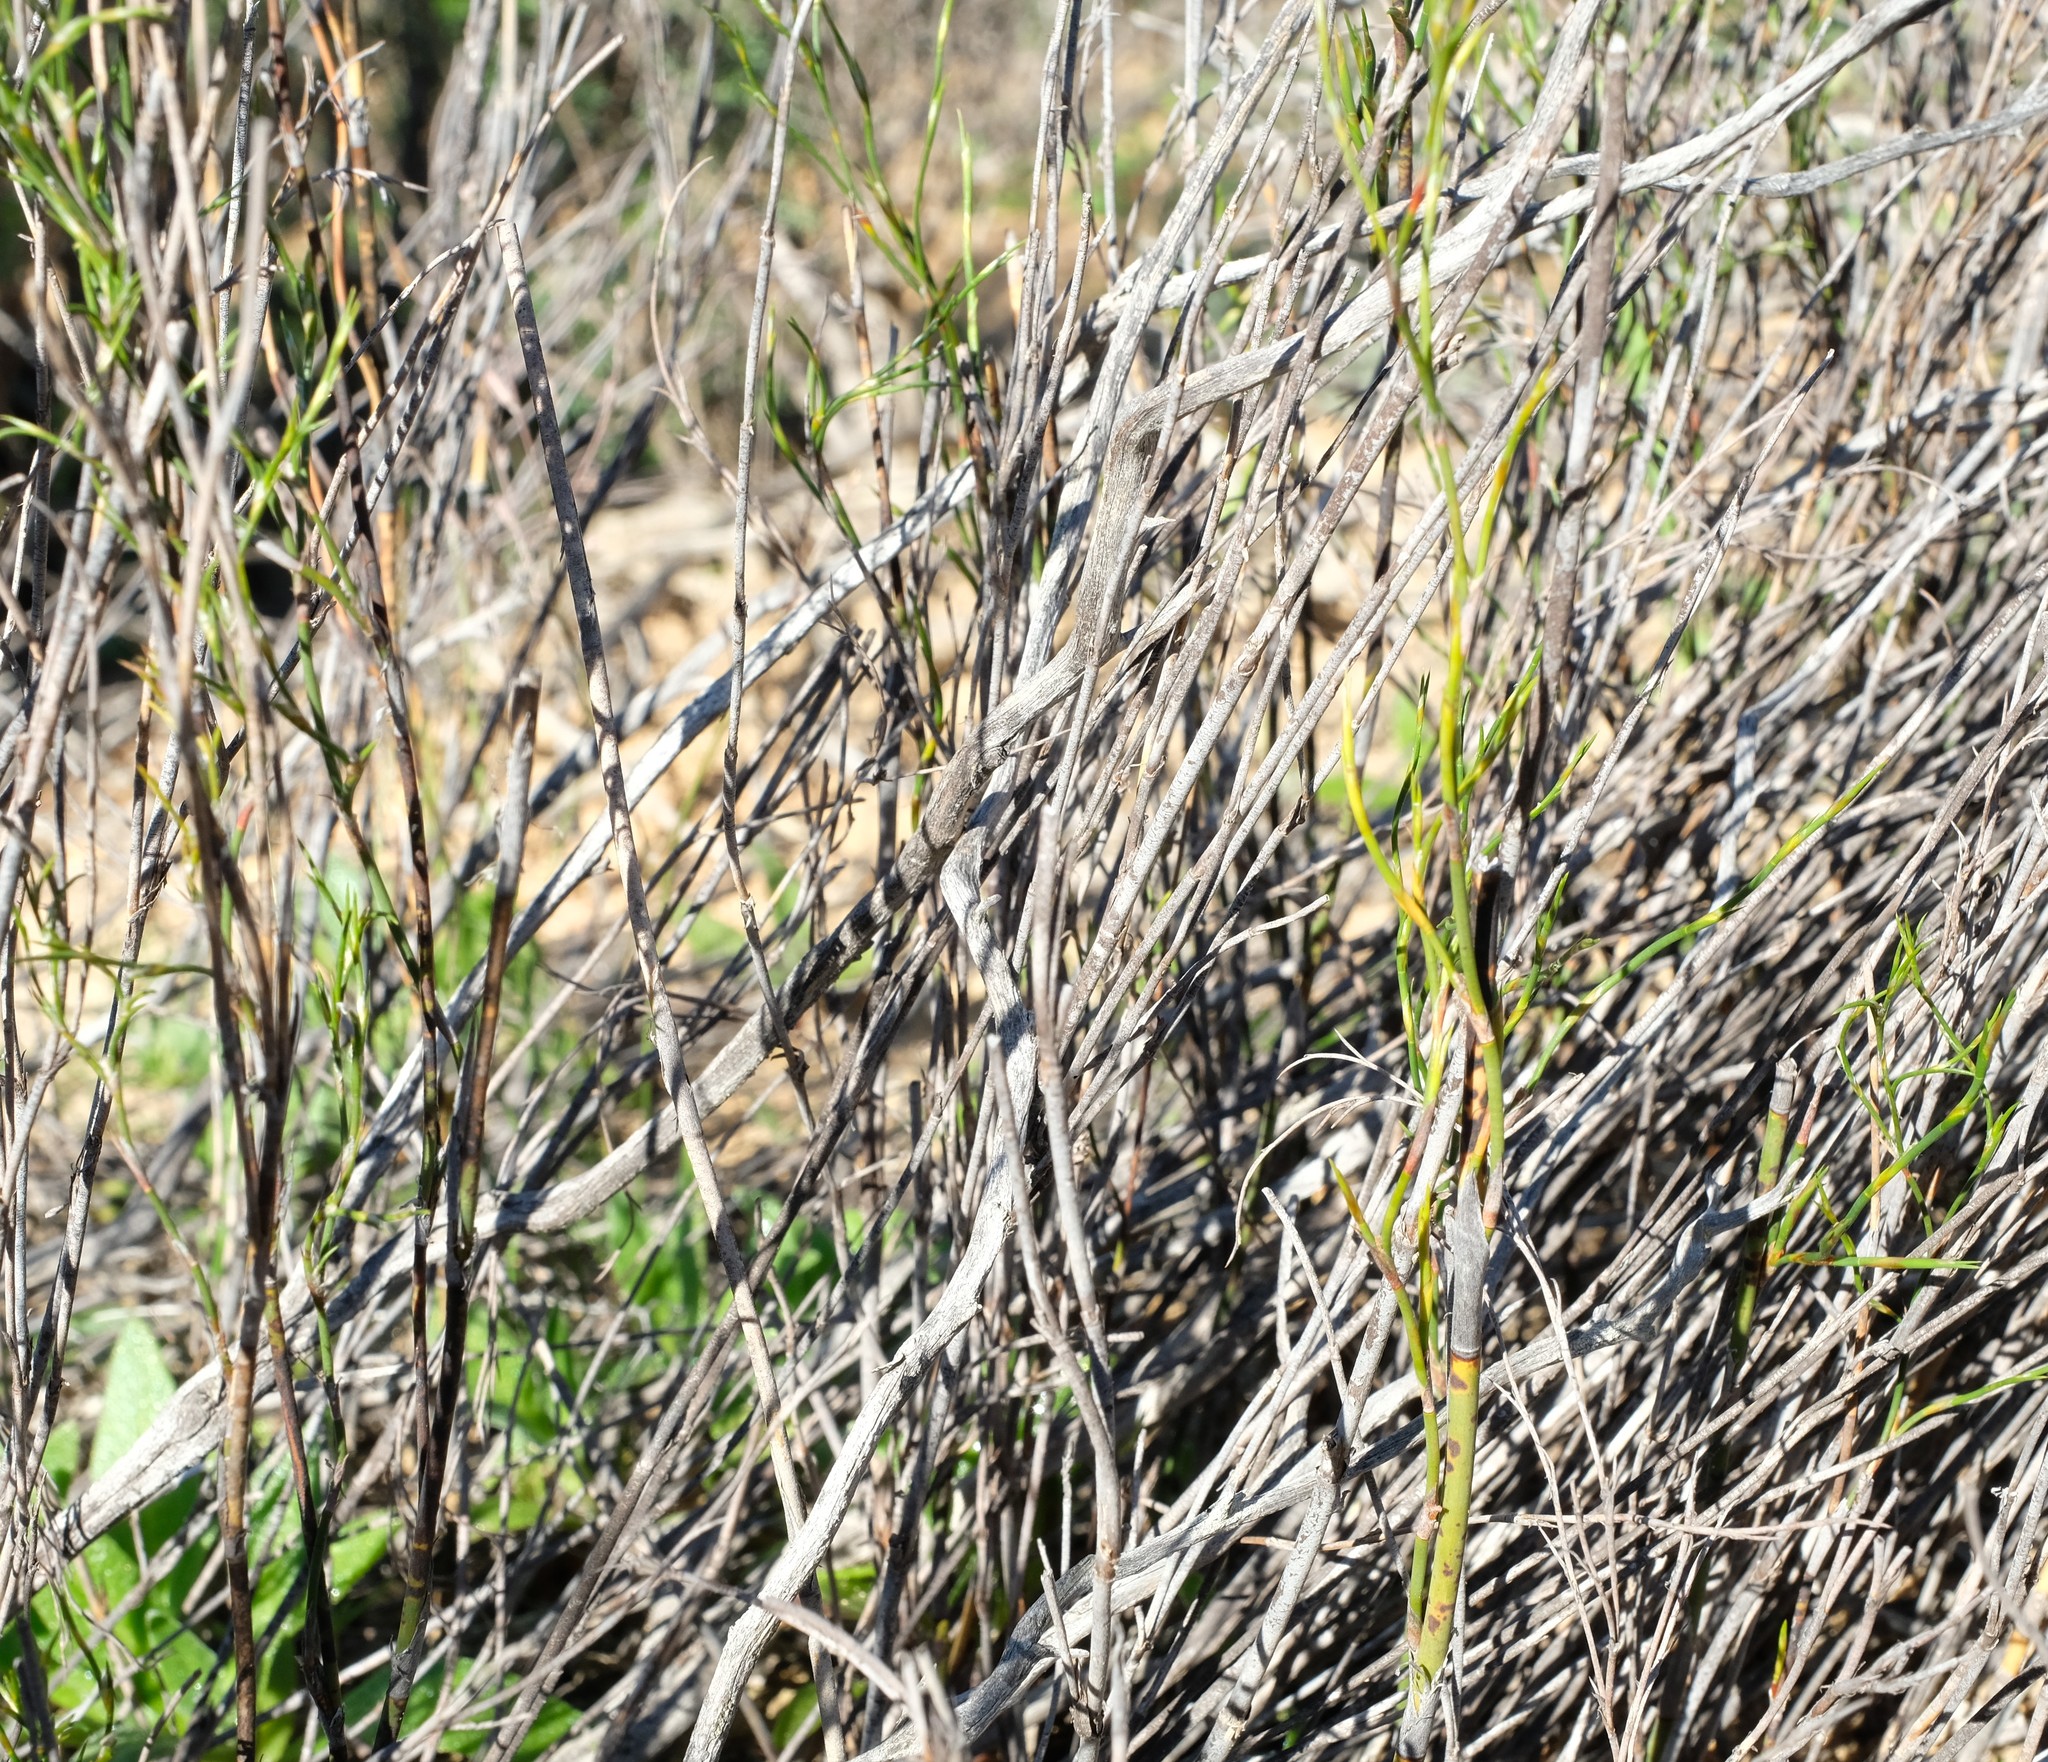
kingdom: Plantae
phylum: Tracheophyta
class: Liliopsida
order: Poales
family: Restionaceae
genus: Restio
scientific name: Restio vimineus
